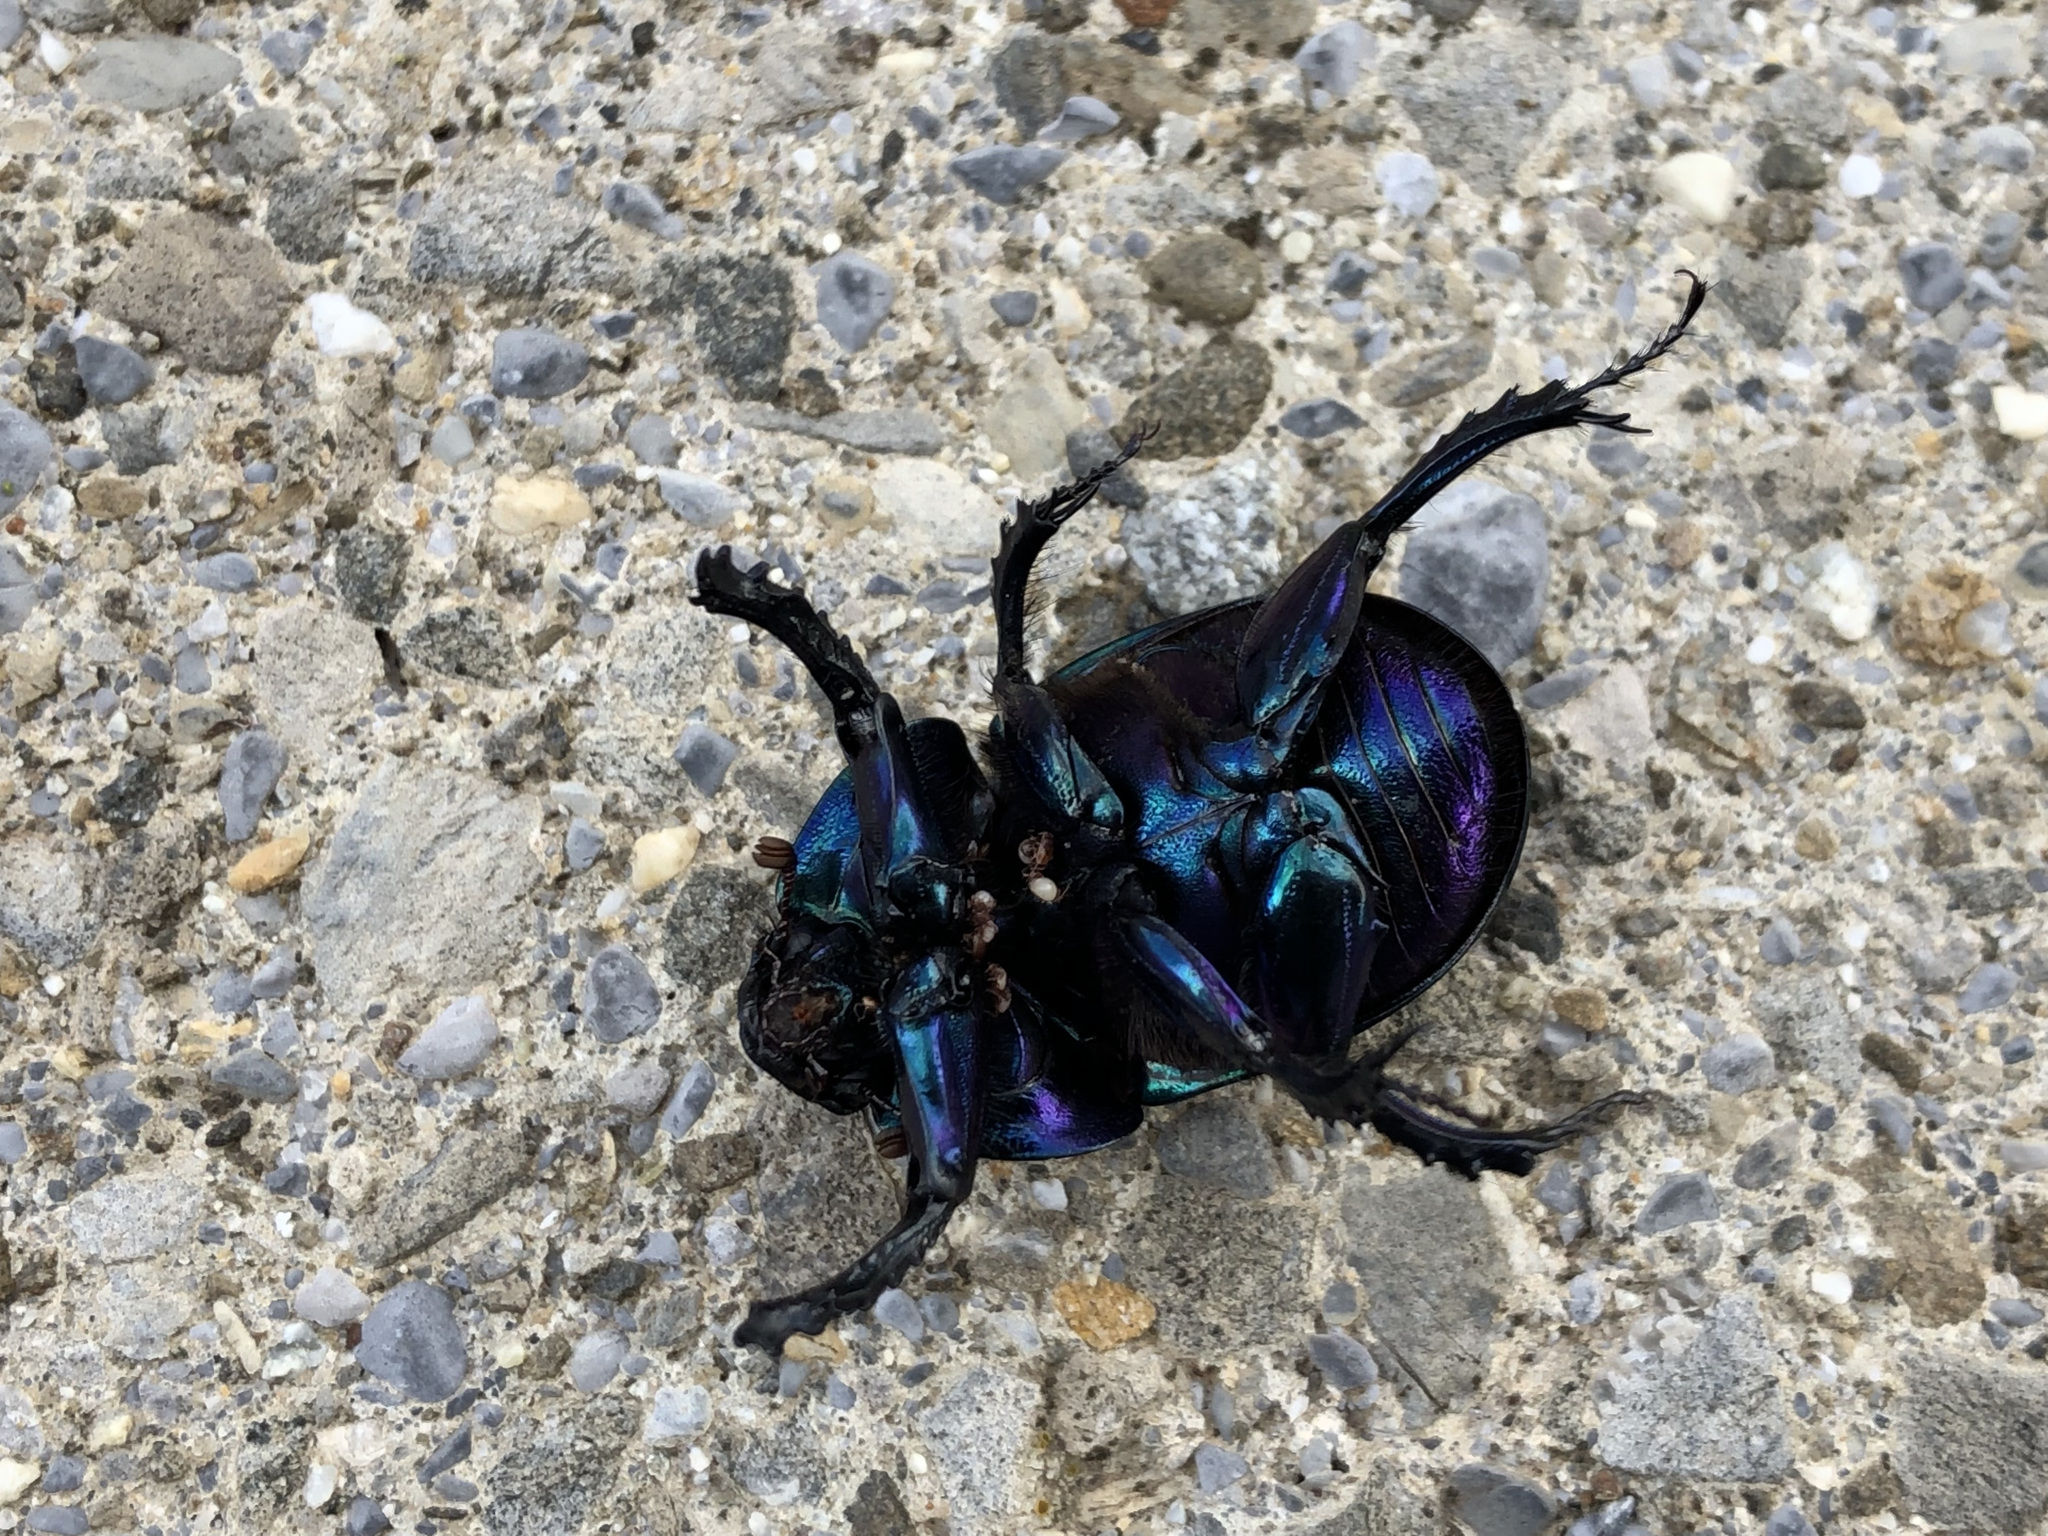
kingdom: Animalia
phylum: Arthropoda
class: Insecta
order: Coleoptera
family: Geotrupidae
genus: Geotrupes
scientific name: Geotrupes stercorarius
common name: Earth-boring dung beetle
